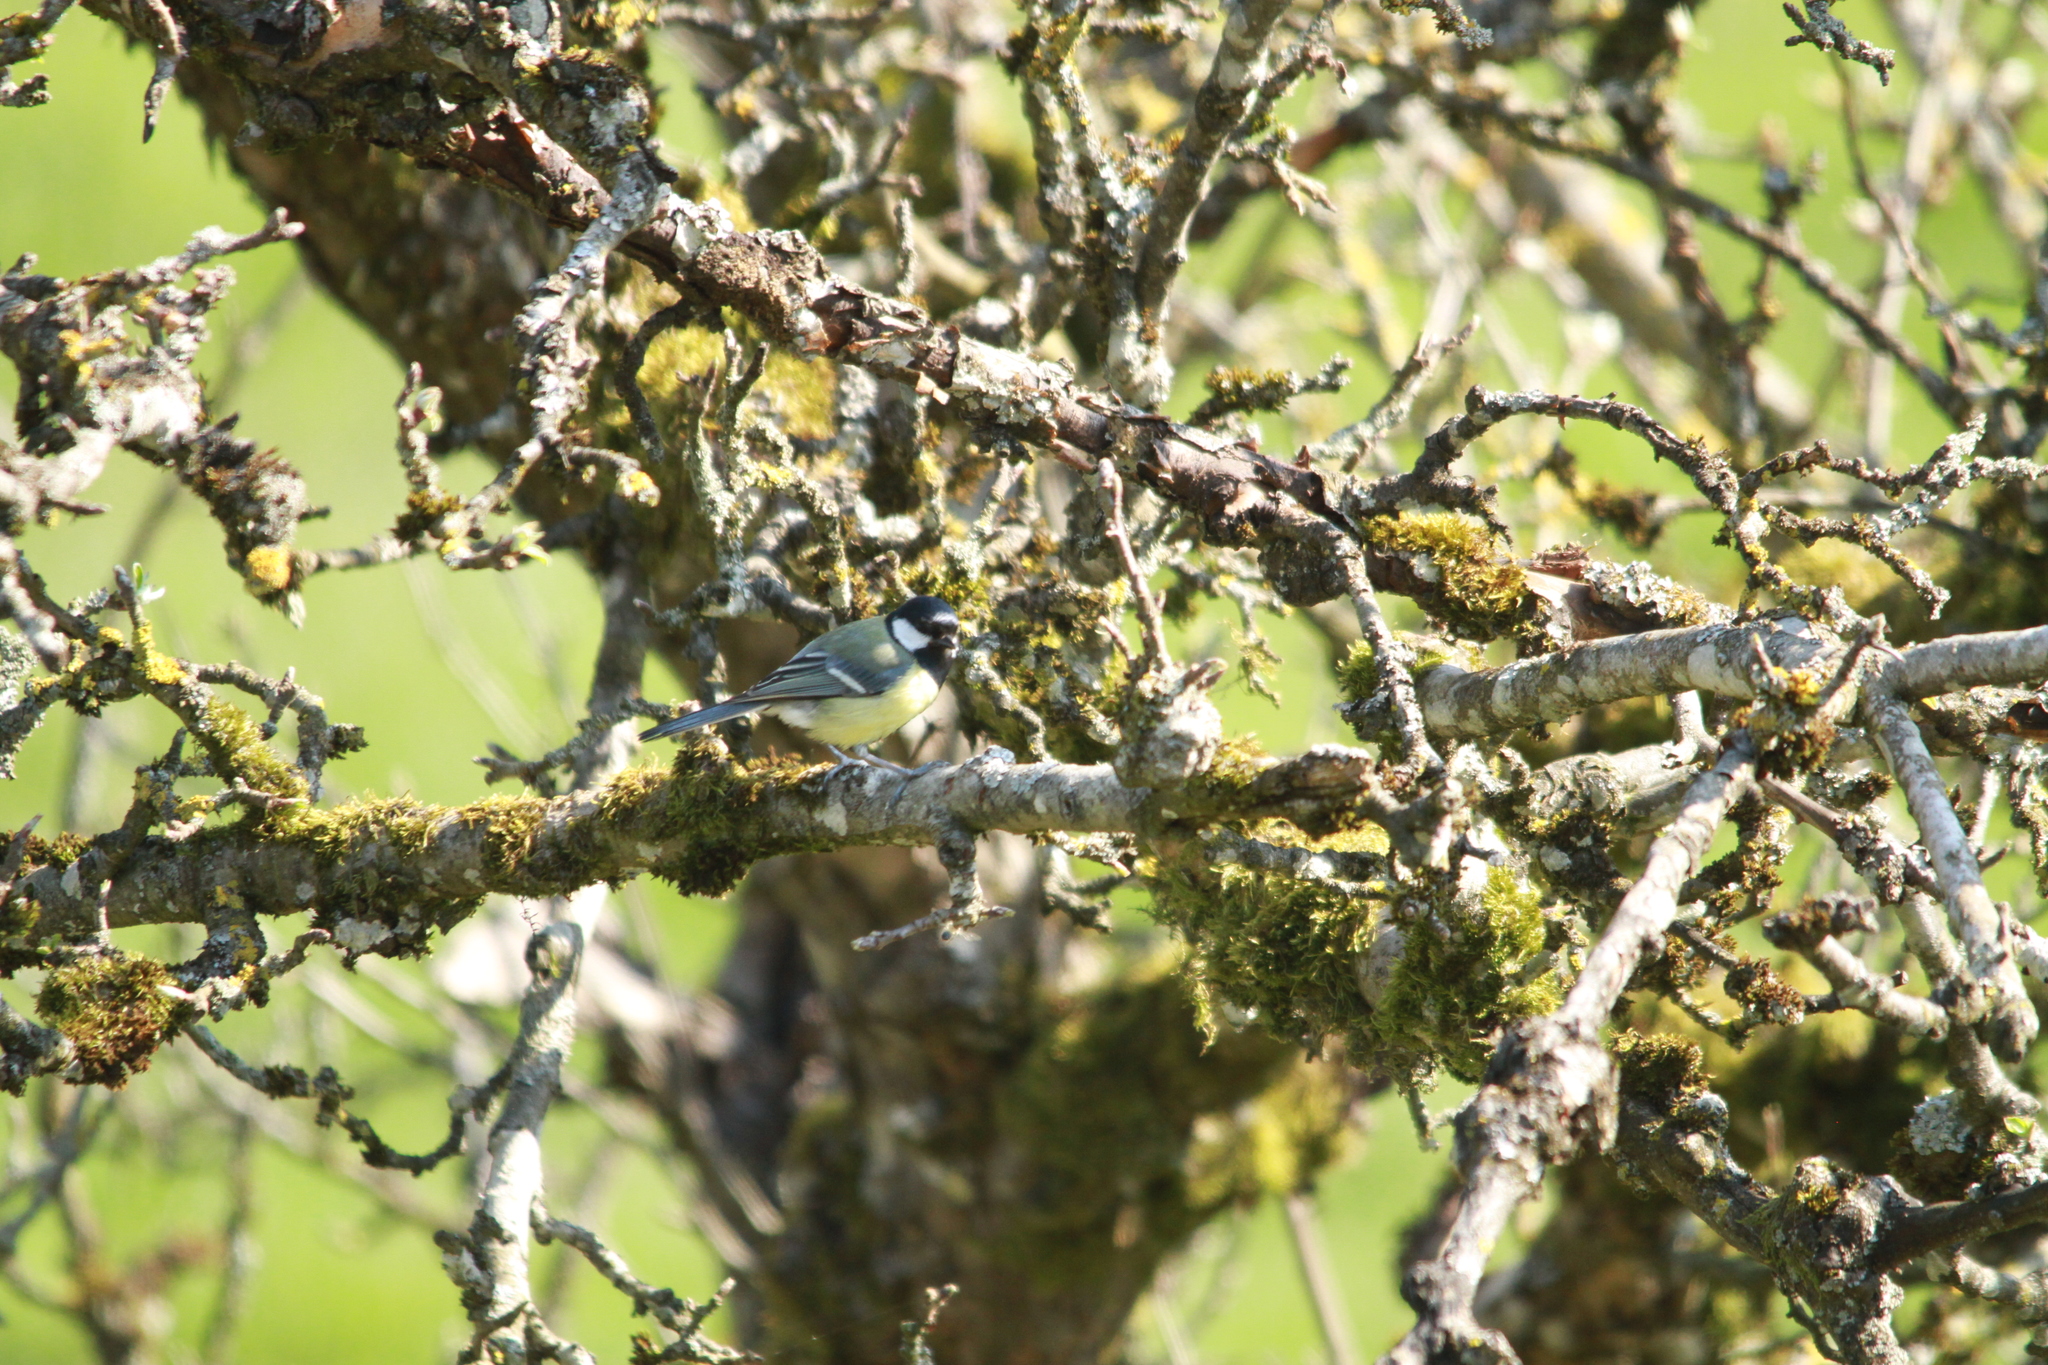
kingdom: Animalia
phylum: Chordata
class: Aves
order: Passeriformes
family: Paridae
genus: Parus
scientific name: Parus major
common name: Great tit
